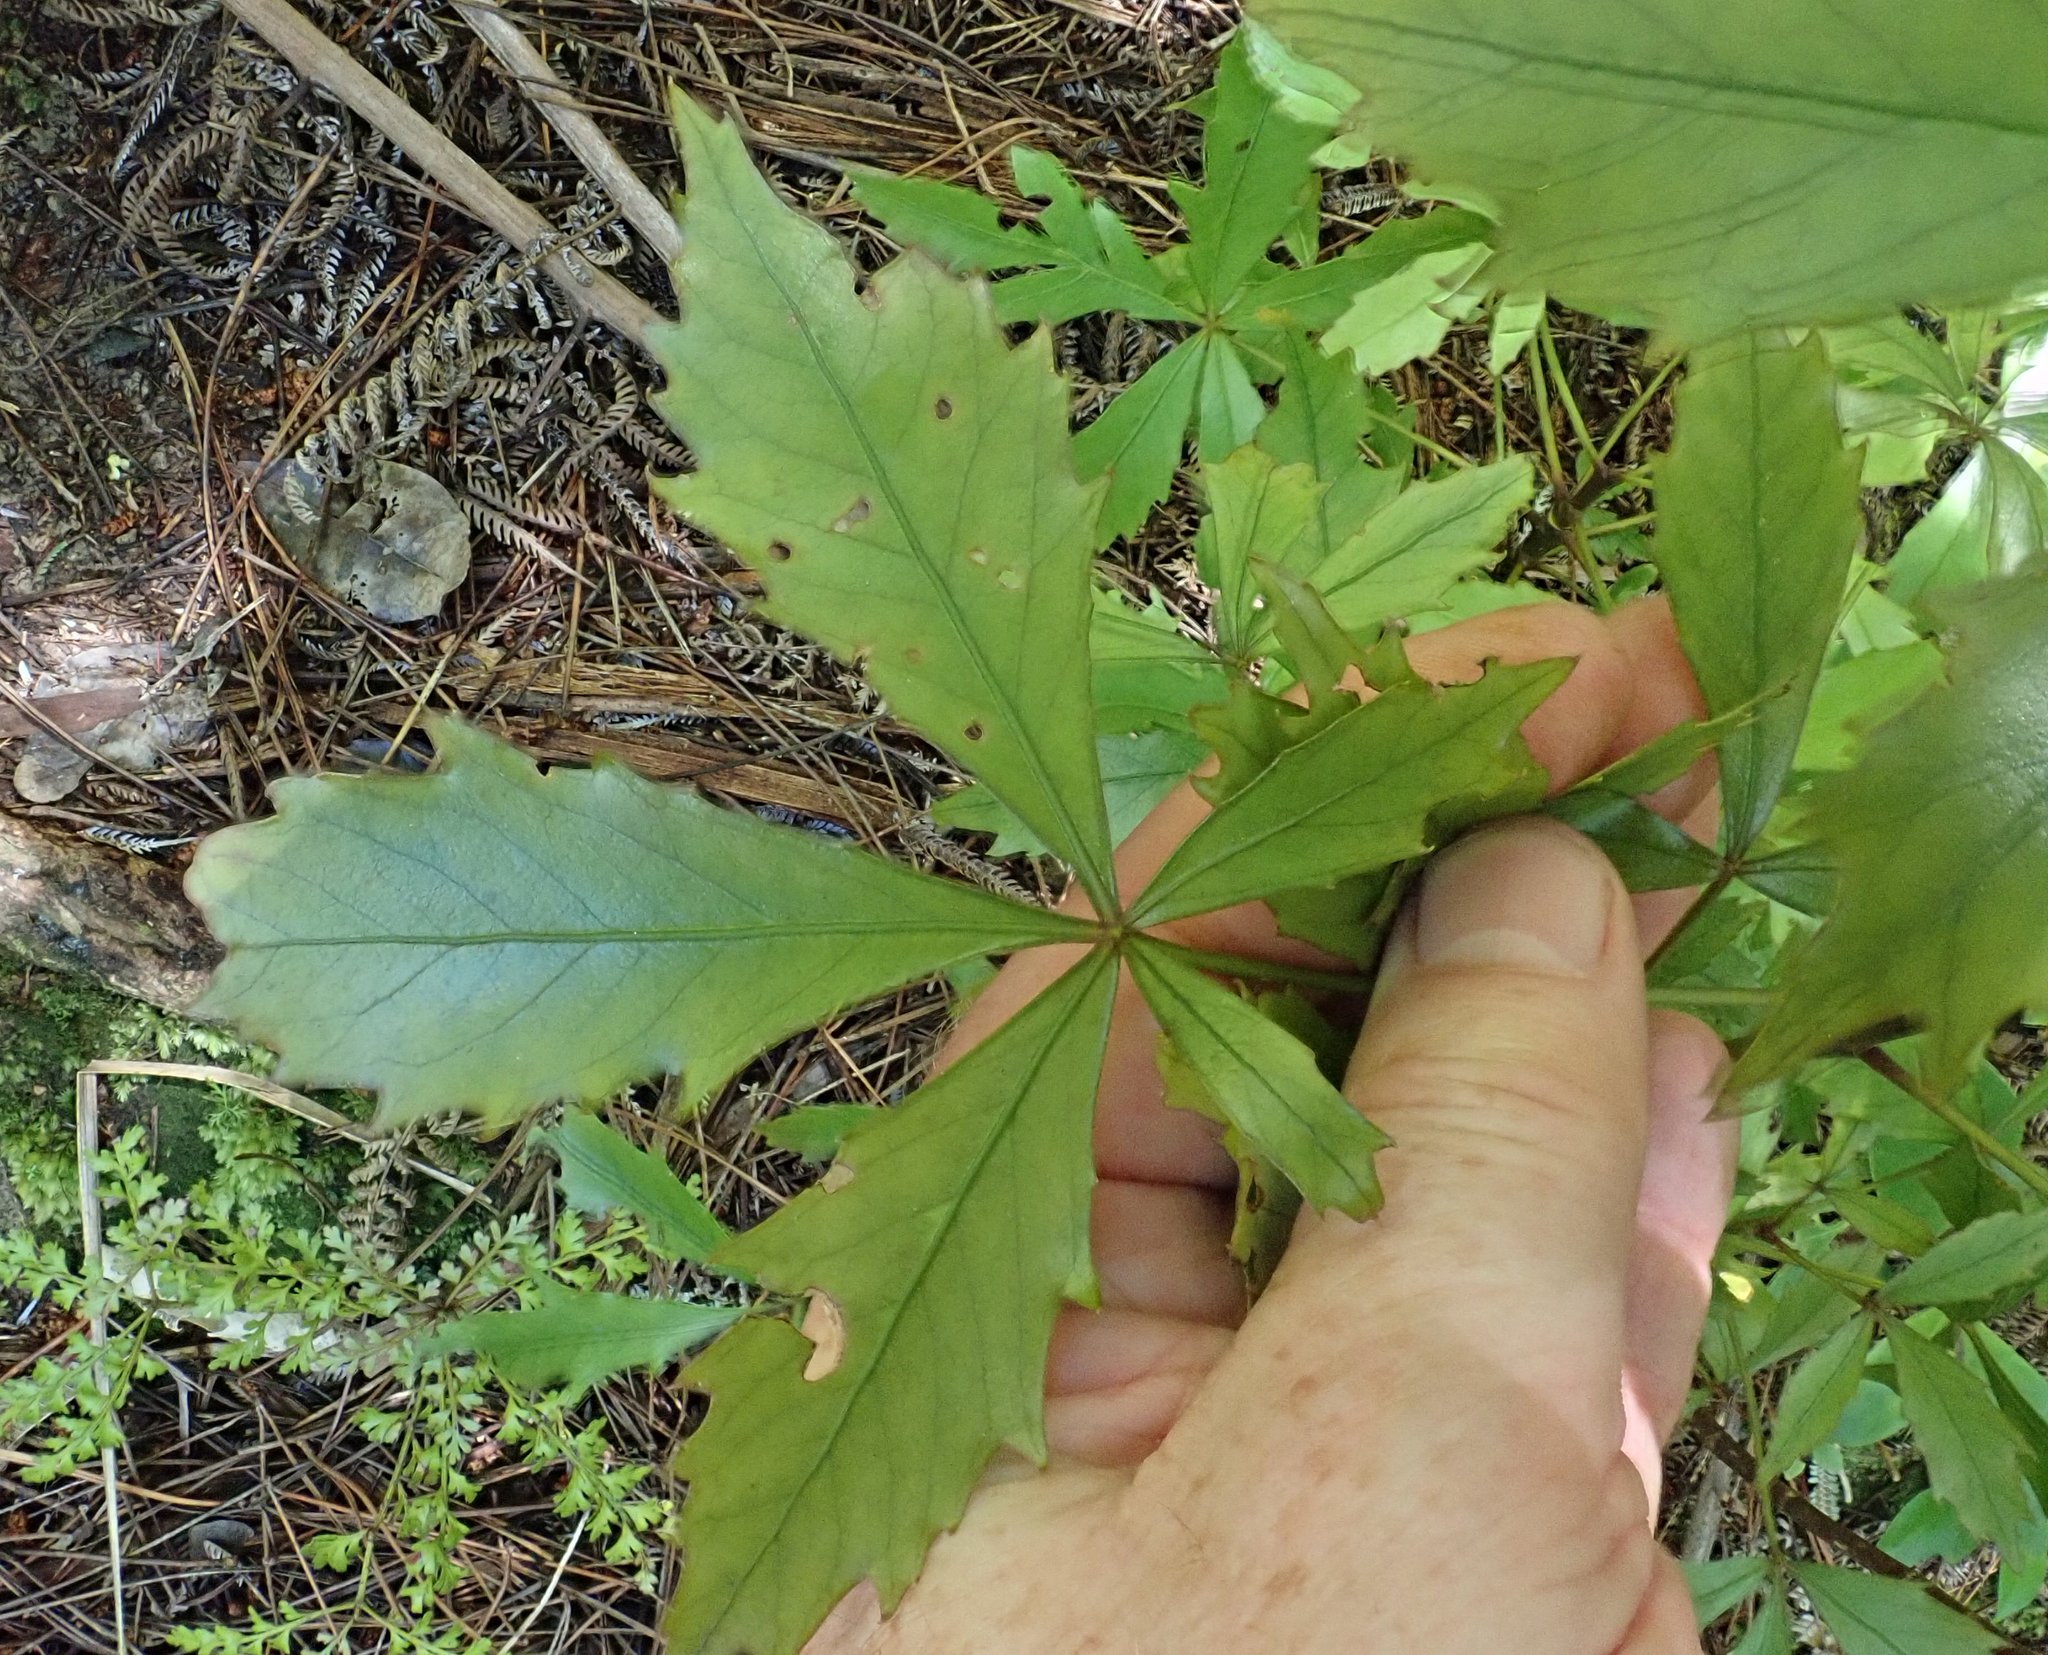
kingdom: Plantae
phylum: Tracheophyta
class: Magnoliopsida
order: Apiales
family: Araliaceae
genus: Pseudopanax
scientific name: Pseudopanax discolor
